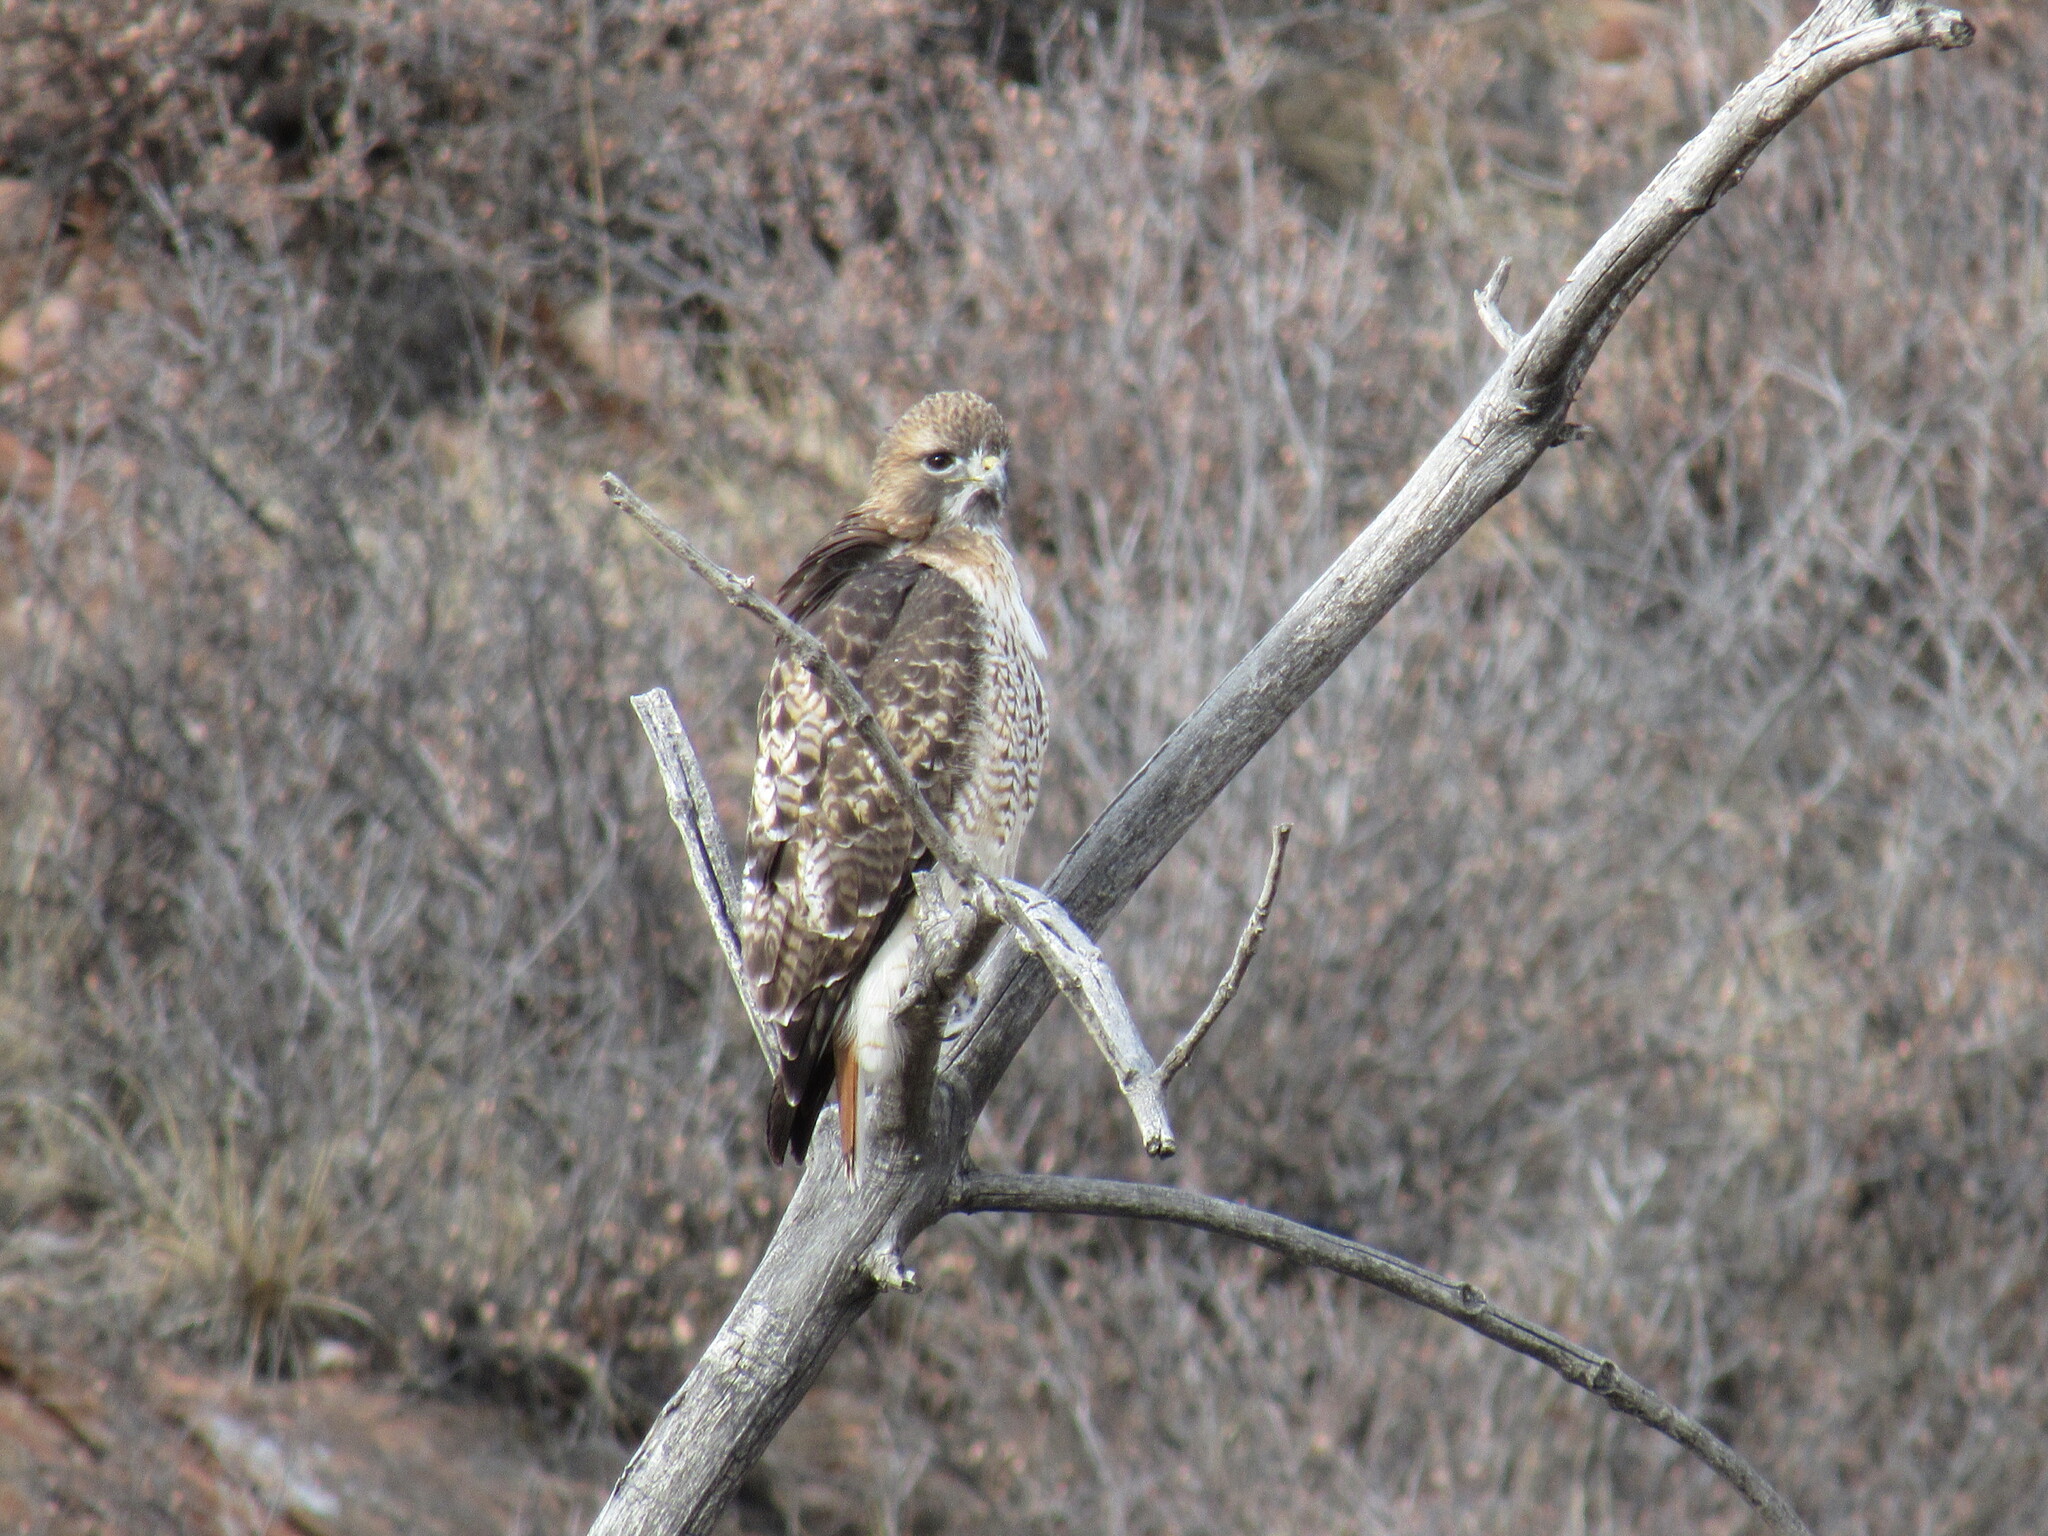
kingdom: Animalia
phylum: Chordata
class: Aves
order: Accipitriformes
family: Accipitridae
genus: Buteo
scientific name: Buteo jamaicensis
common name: Red-tailed hawk
